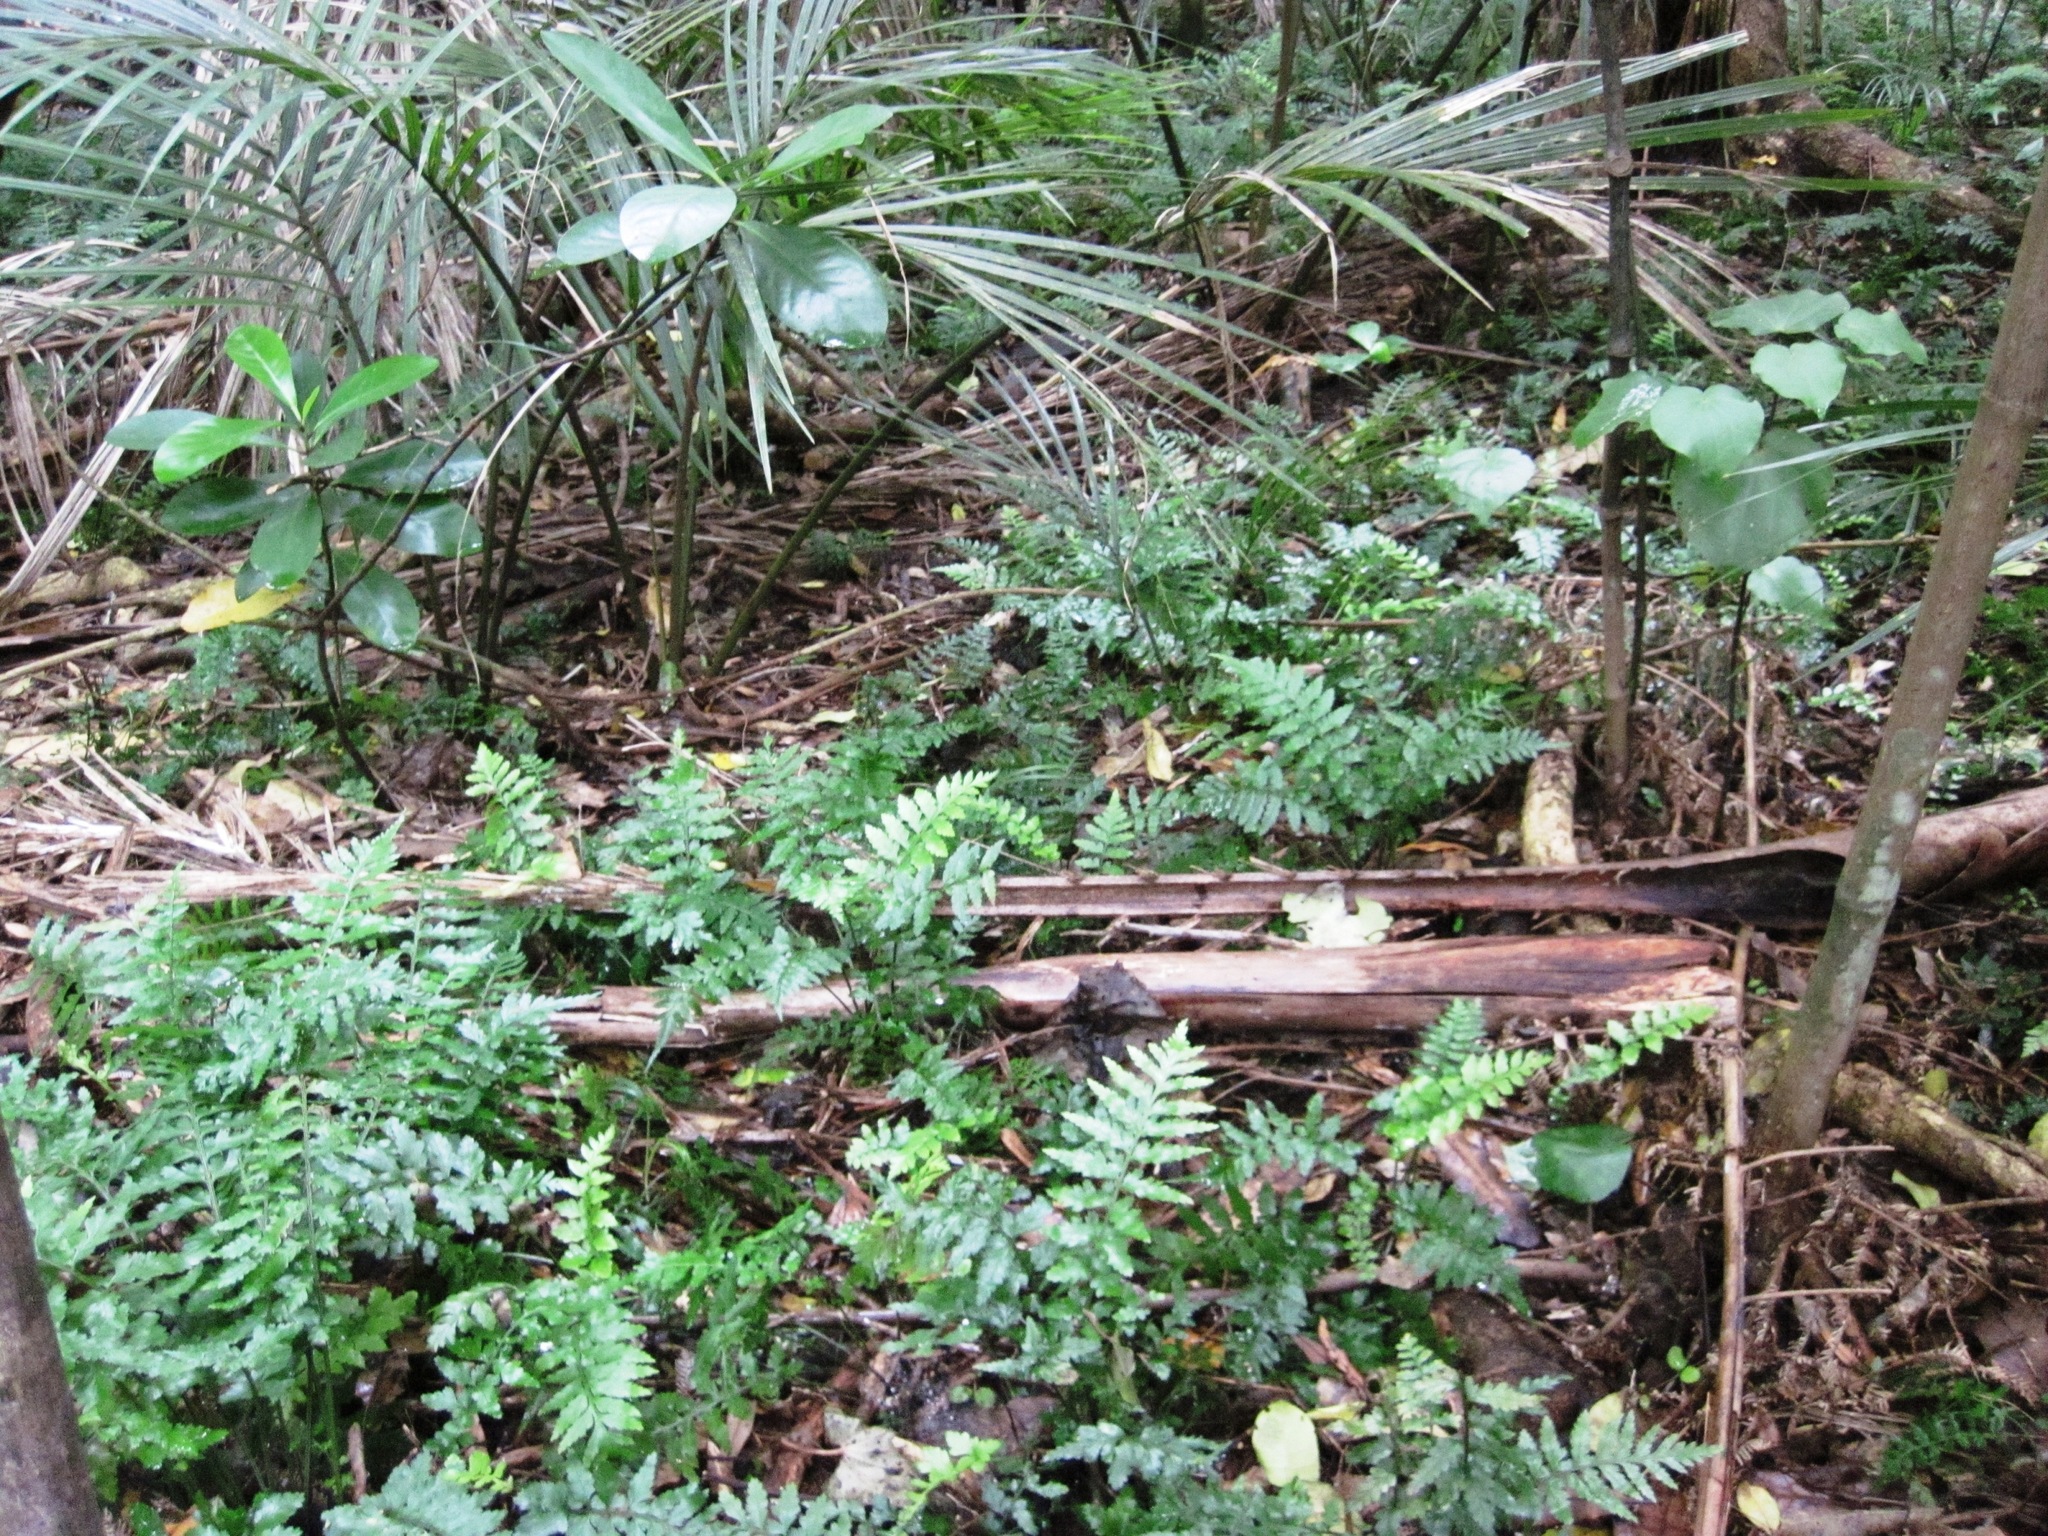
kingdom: Plantae
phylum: Tracheophyta
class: Polypodiopsida
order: Polypodiales
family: Aspleniaceae
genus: Asplenium
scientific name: Asplenium lamprophyllum
